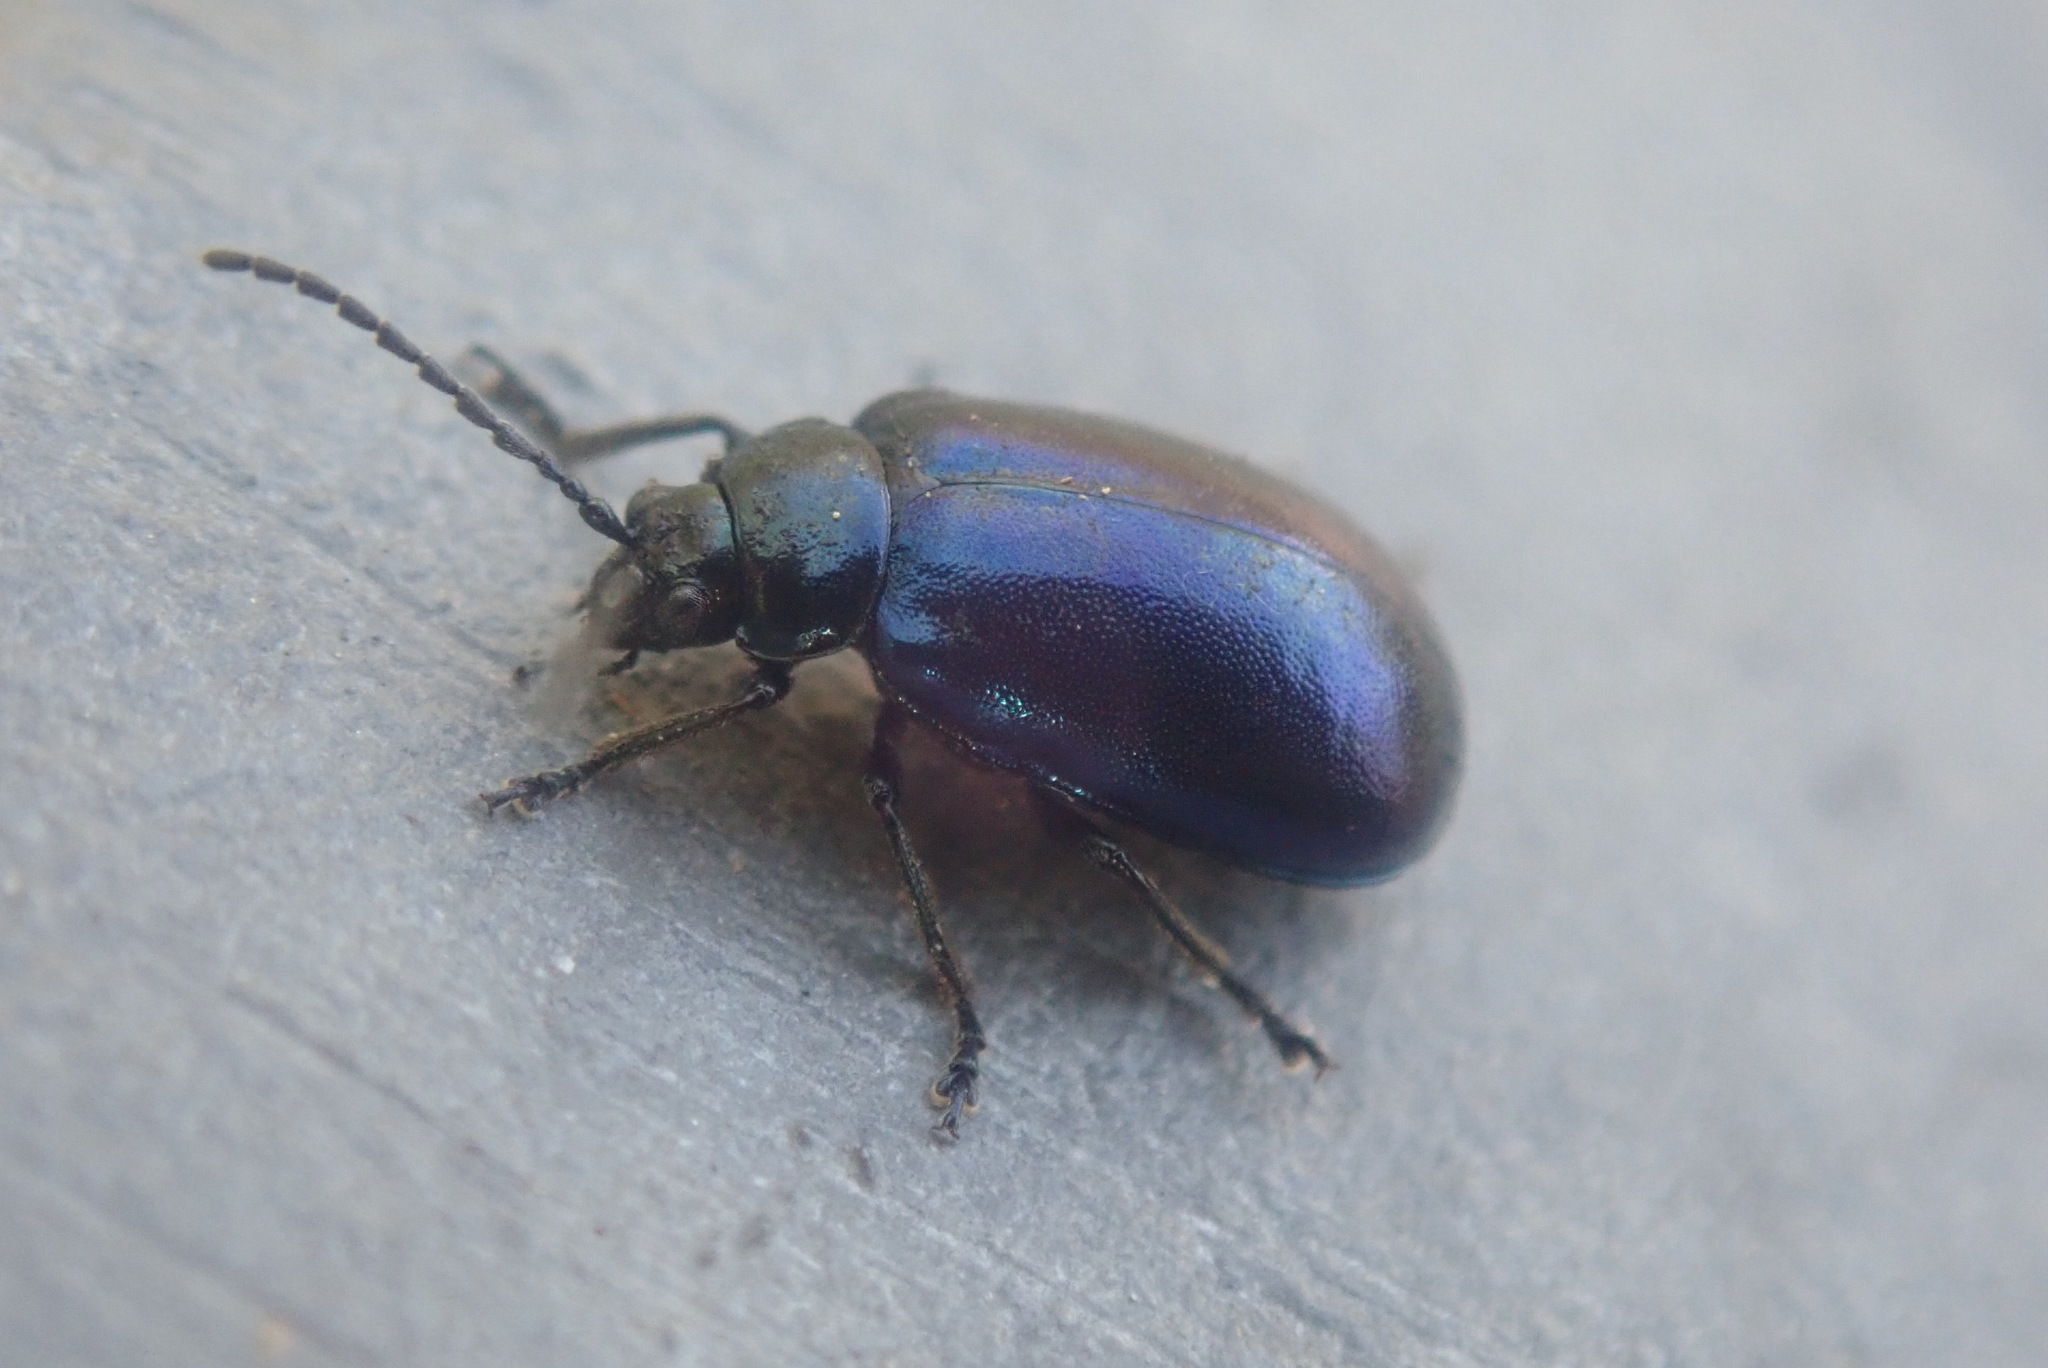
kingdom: Animalia
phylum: Arthropoda
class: Insecta
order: Coleoptera
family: Chrysomelidae
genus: Agelastica
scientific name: Agelastica alni
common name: Alder leaf beetle
